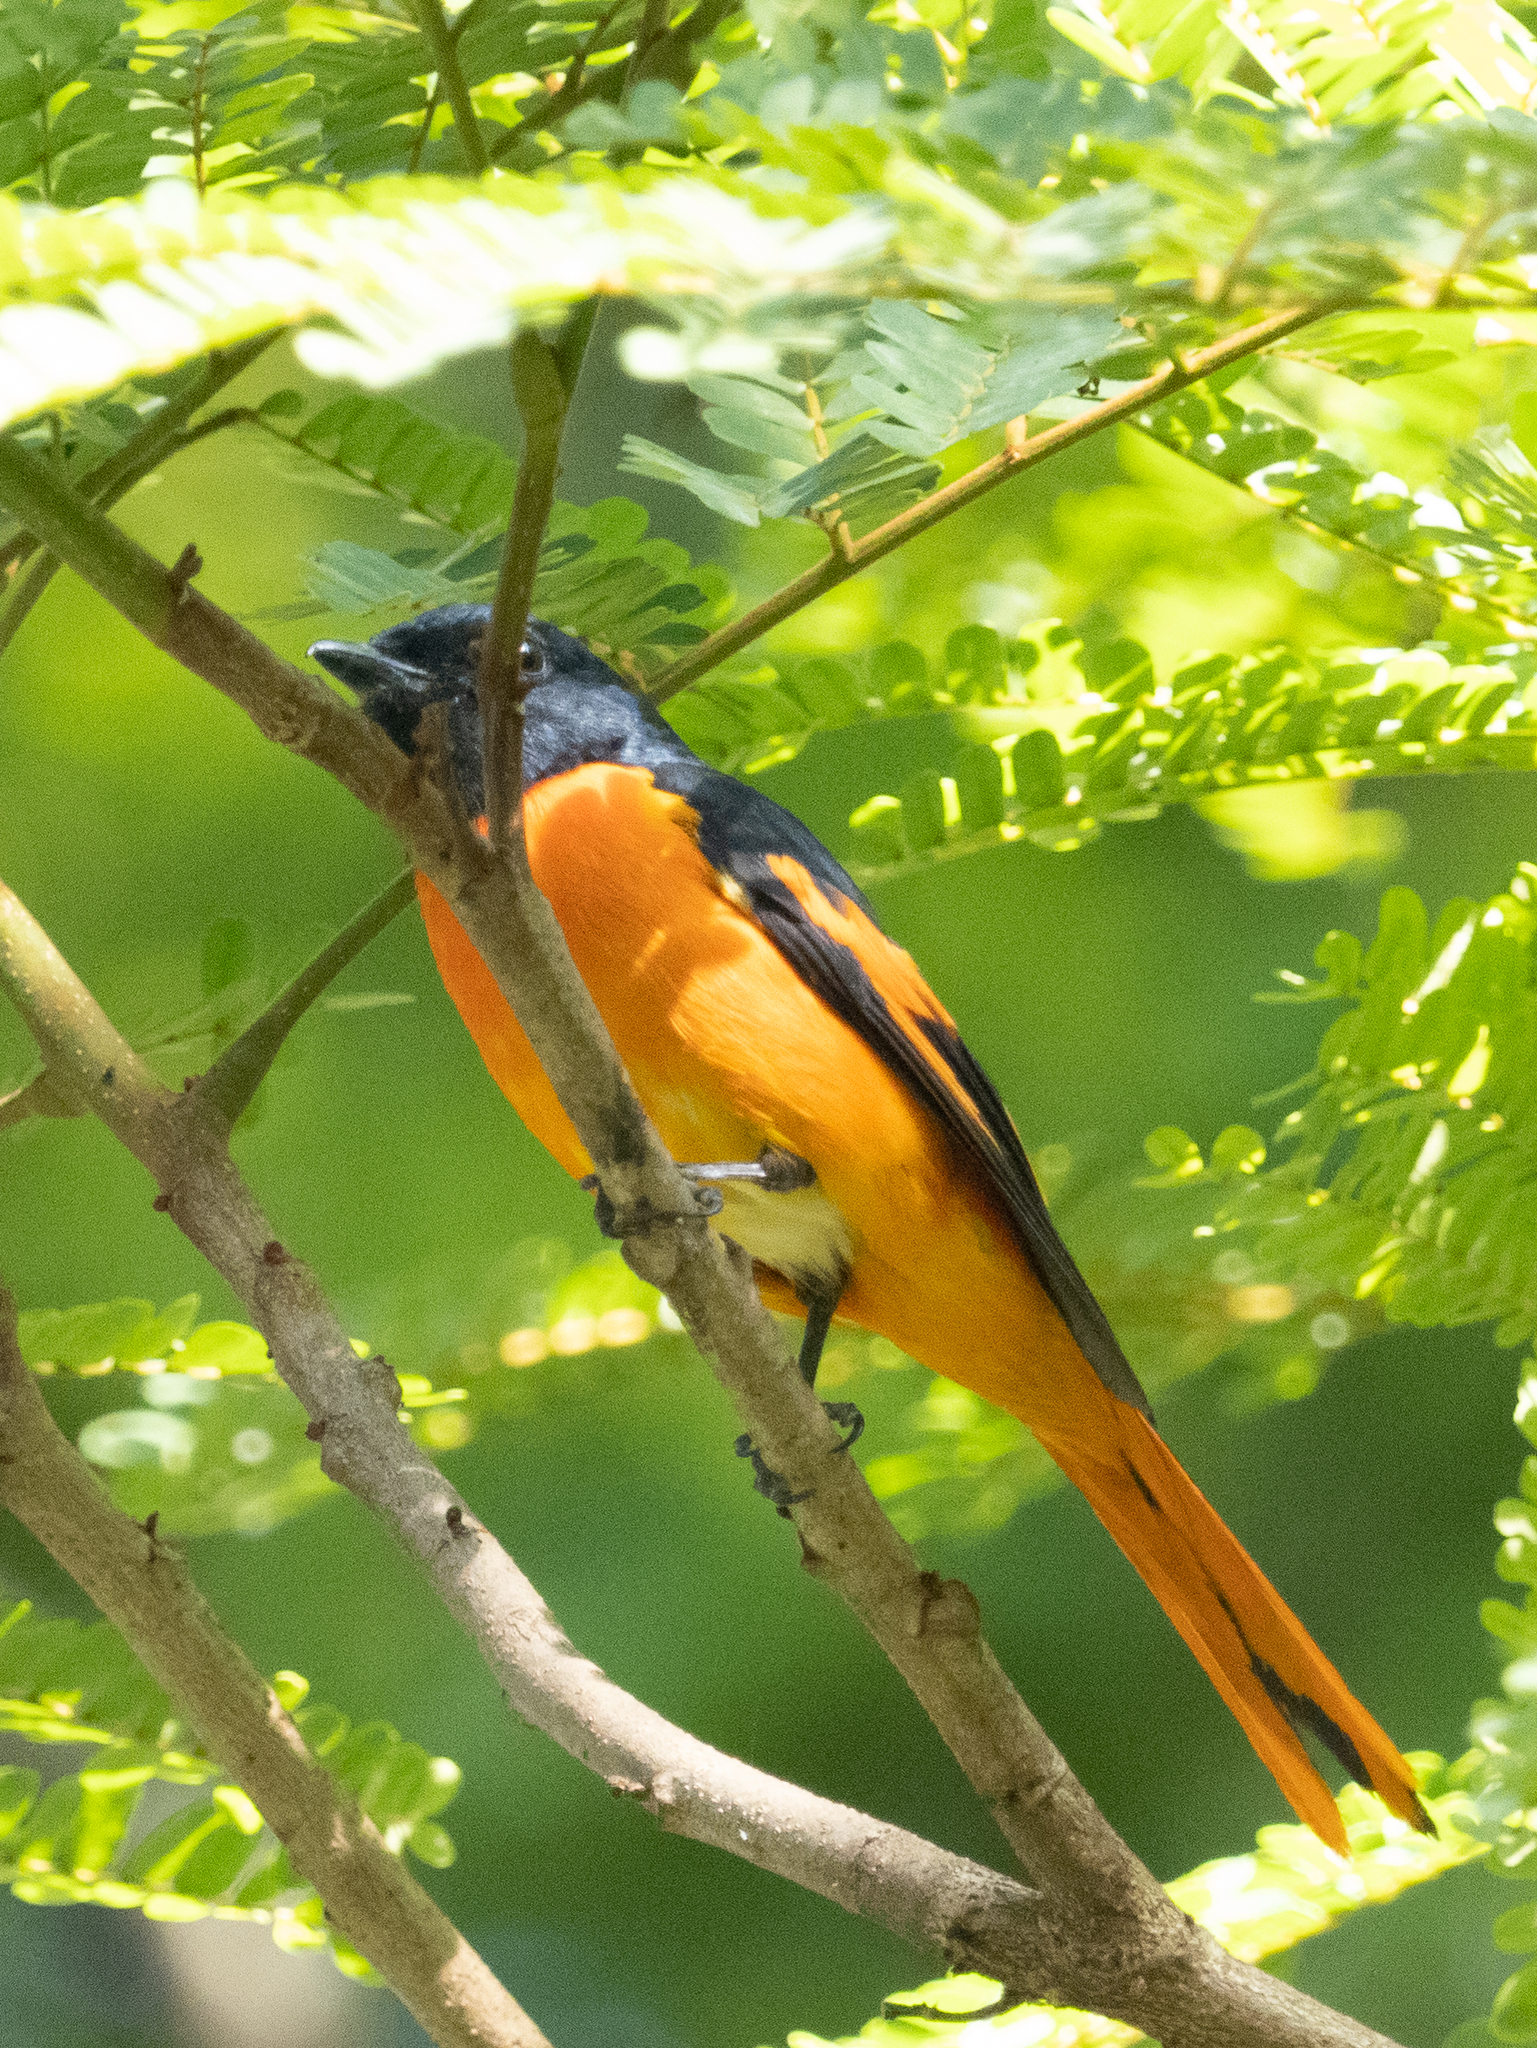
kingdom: Animalia
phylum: Chordata
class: Aves
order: Passeriformes
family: Campephagidae
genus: Pericrocotus
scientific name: Pericrocotus flammeus
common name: Orange minivet
